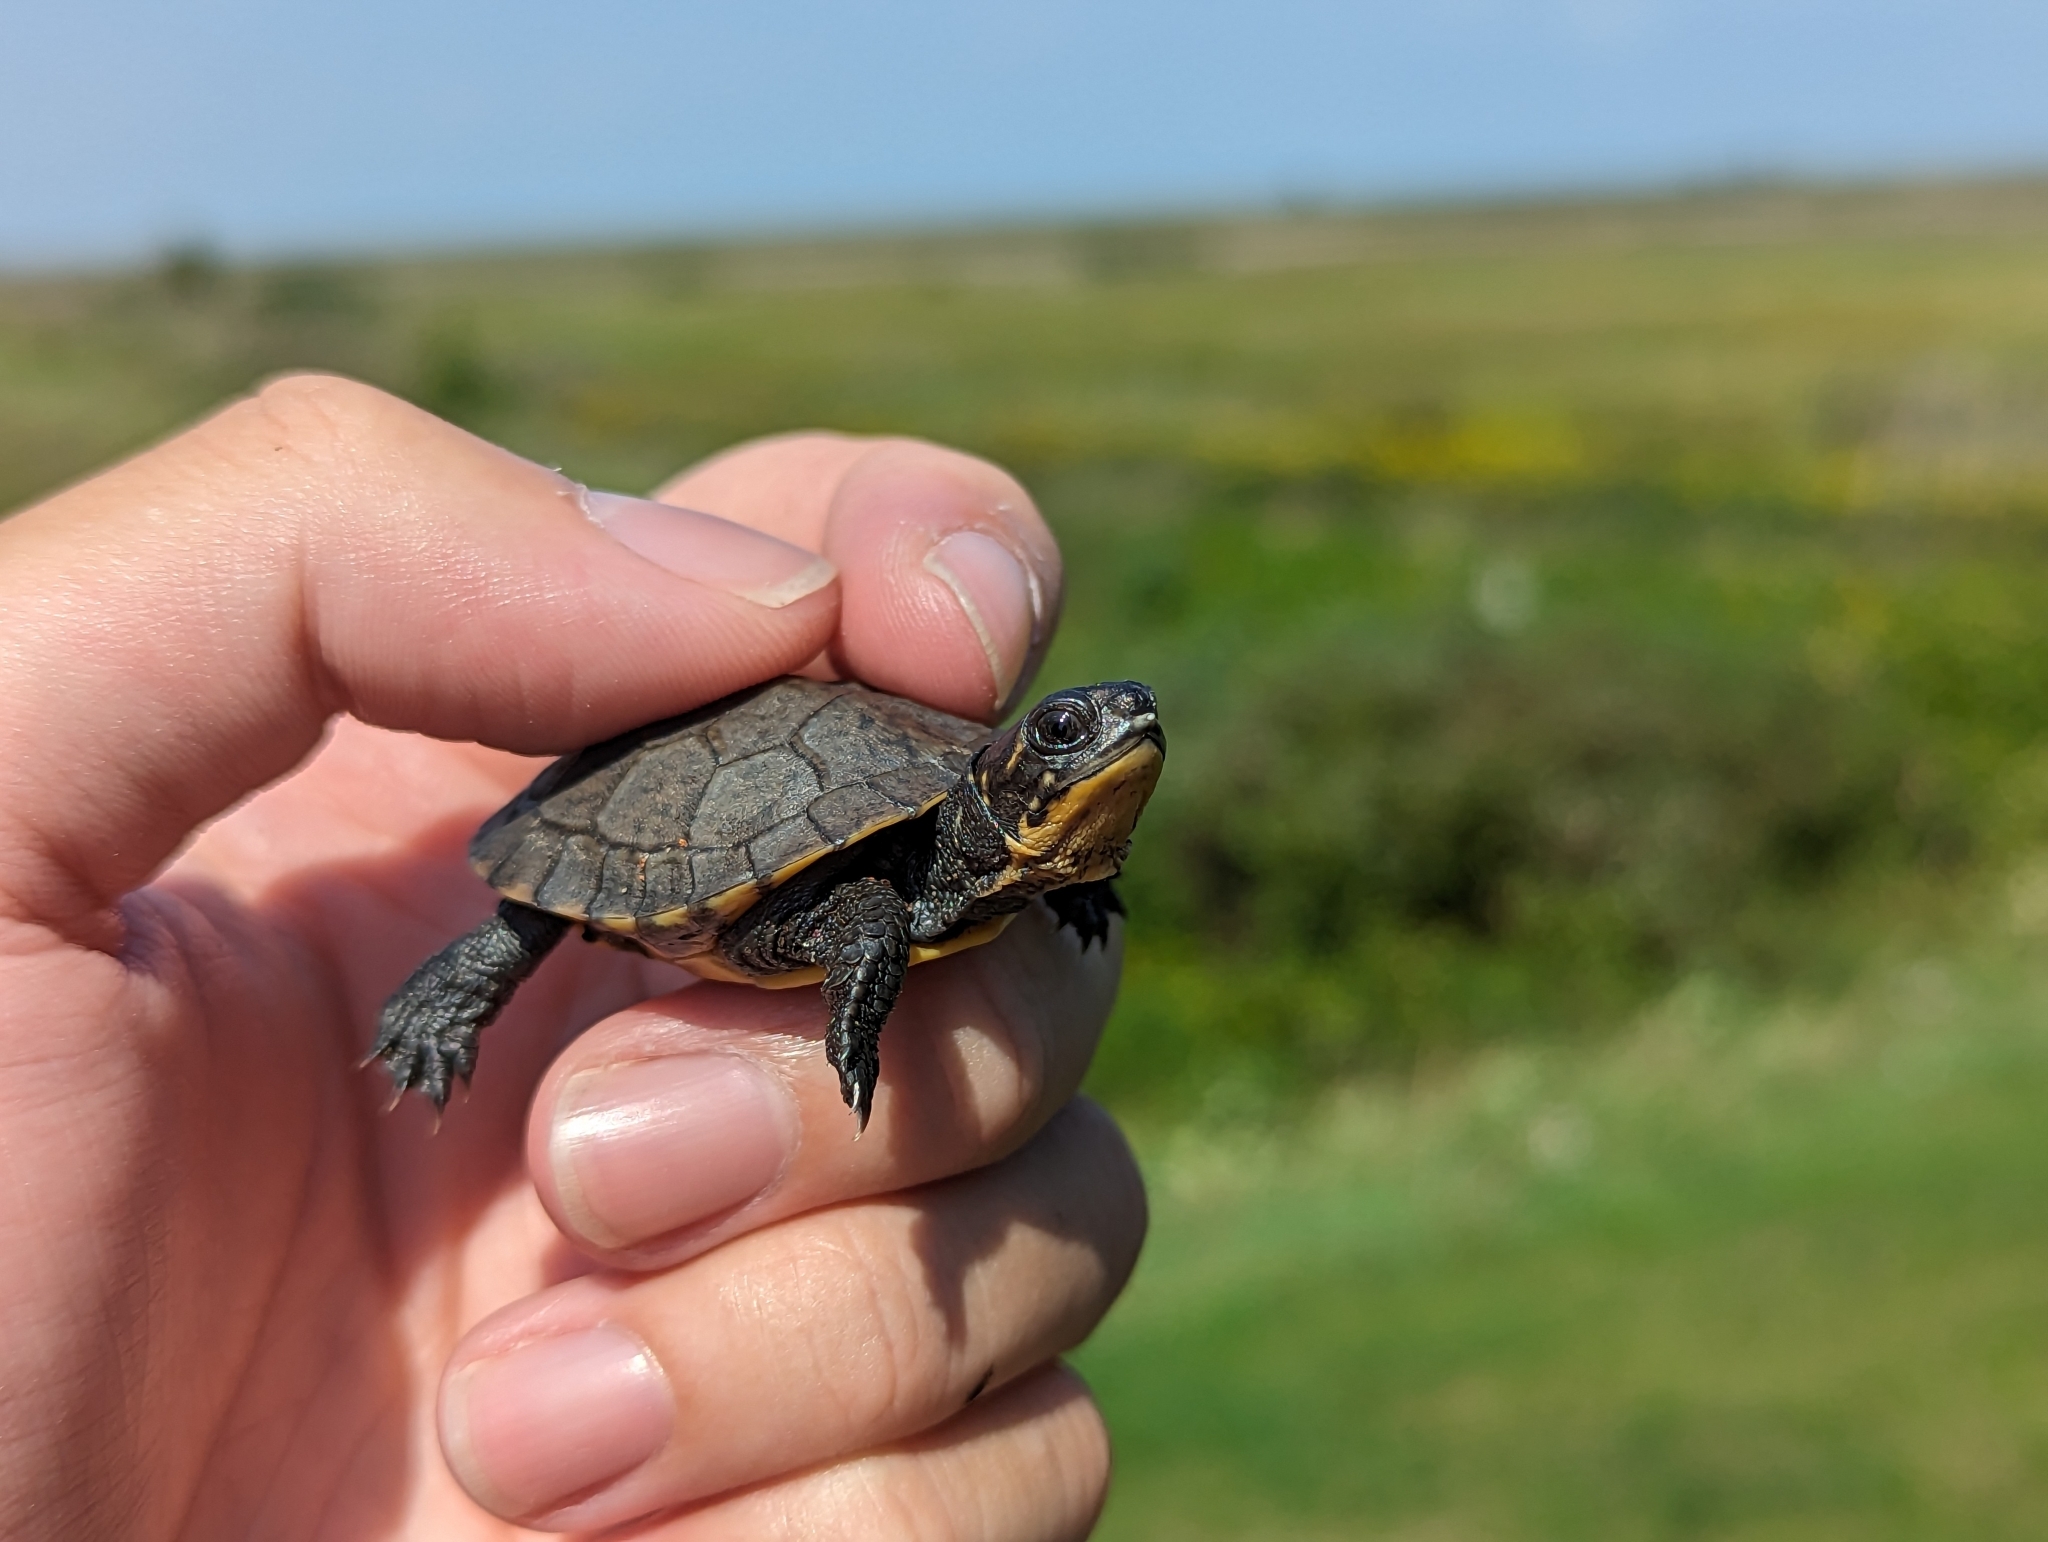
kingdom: Animalia
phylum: Chordata
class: Testudines
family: Emydidae
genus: Emys
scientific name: Emys blandingii
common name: Blanding's turtle
